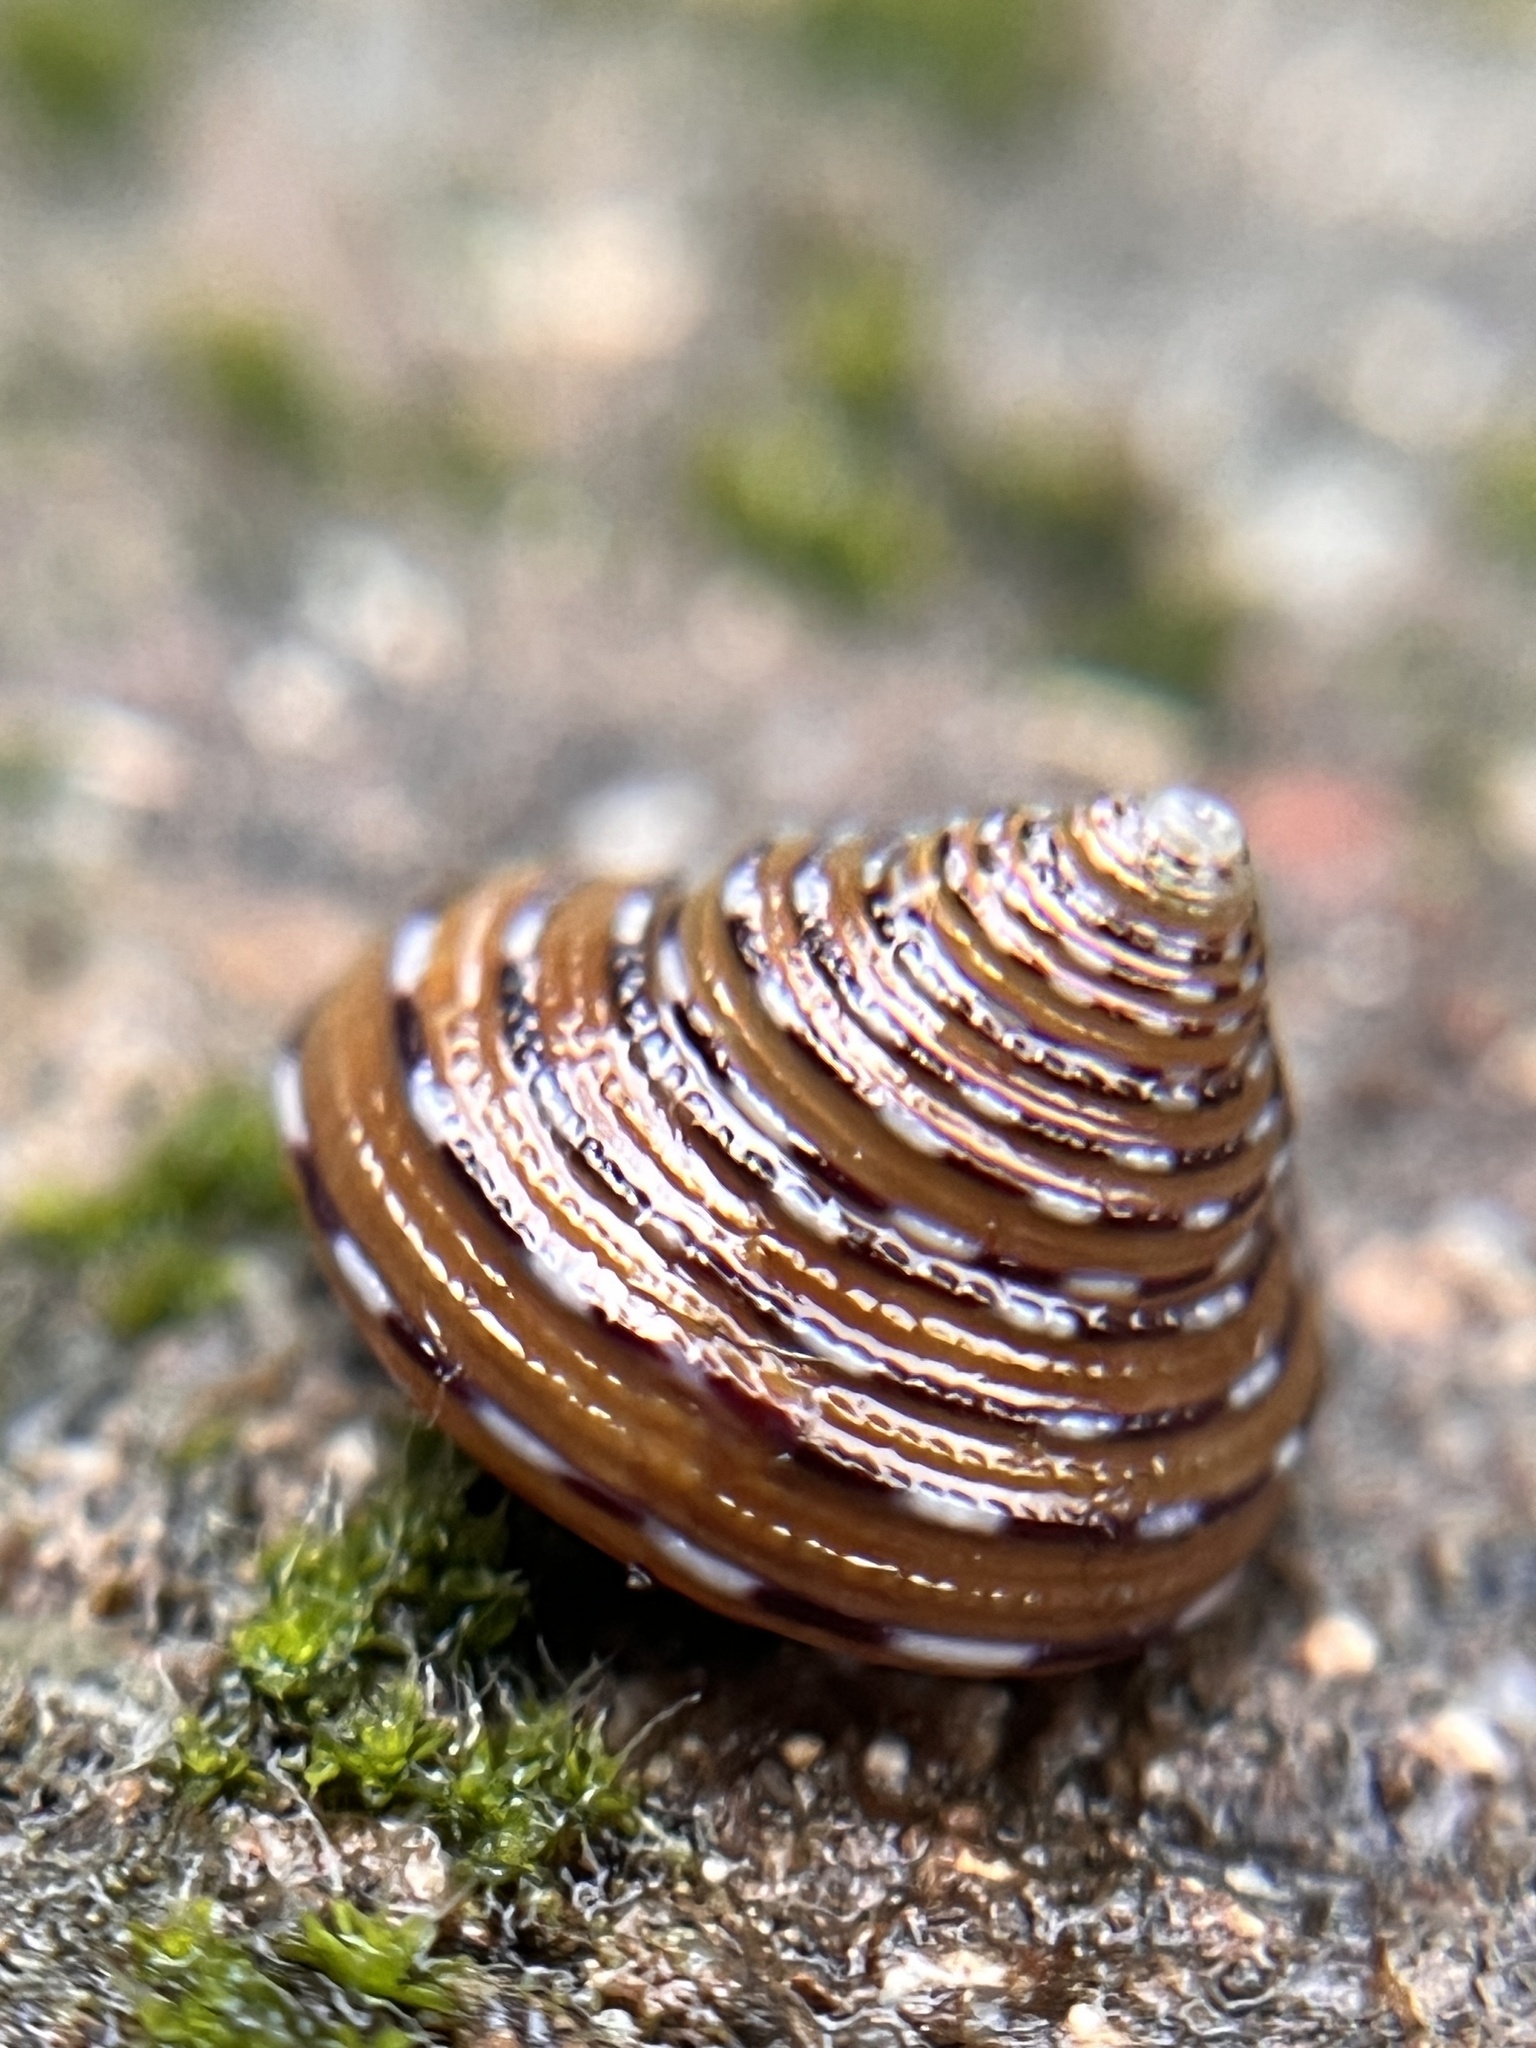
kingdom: Animalia
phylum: Mollusca
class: Gastropoda
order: Trochida
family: Calliostomatidae
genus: Calliostoma
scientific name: Calliostoma tricolor
